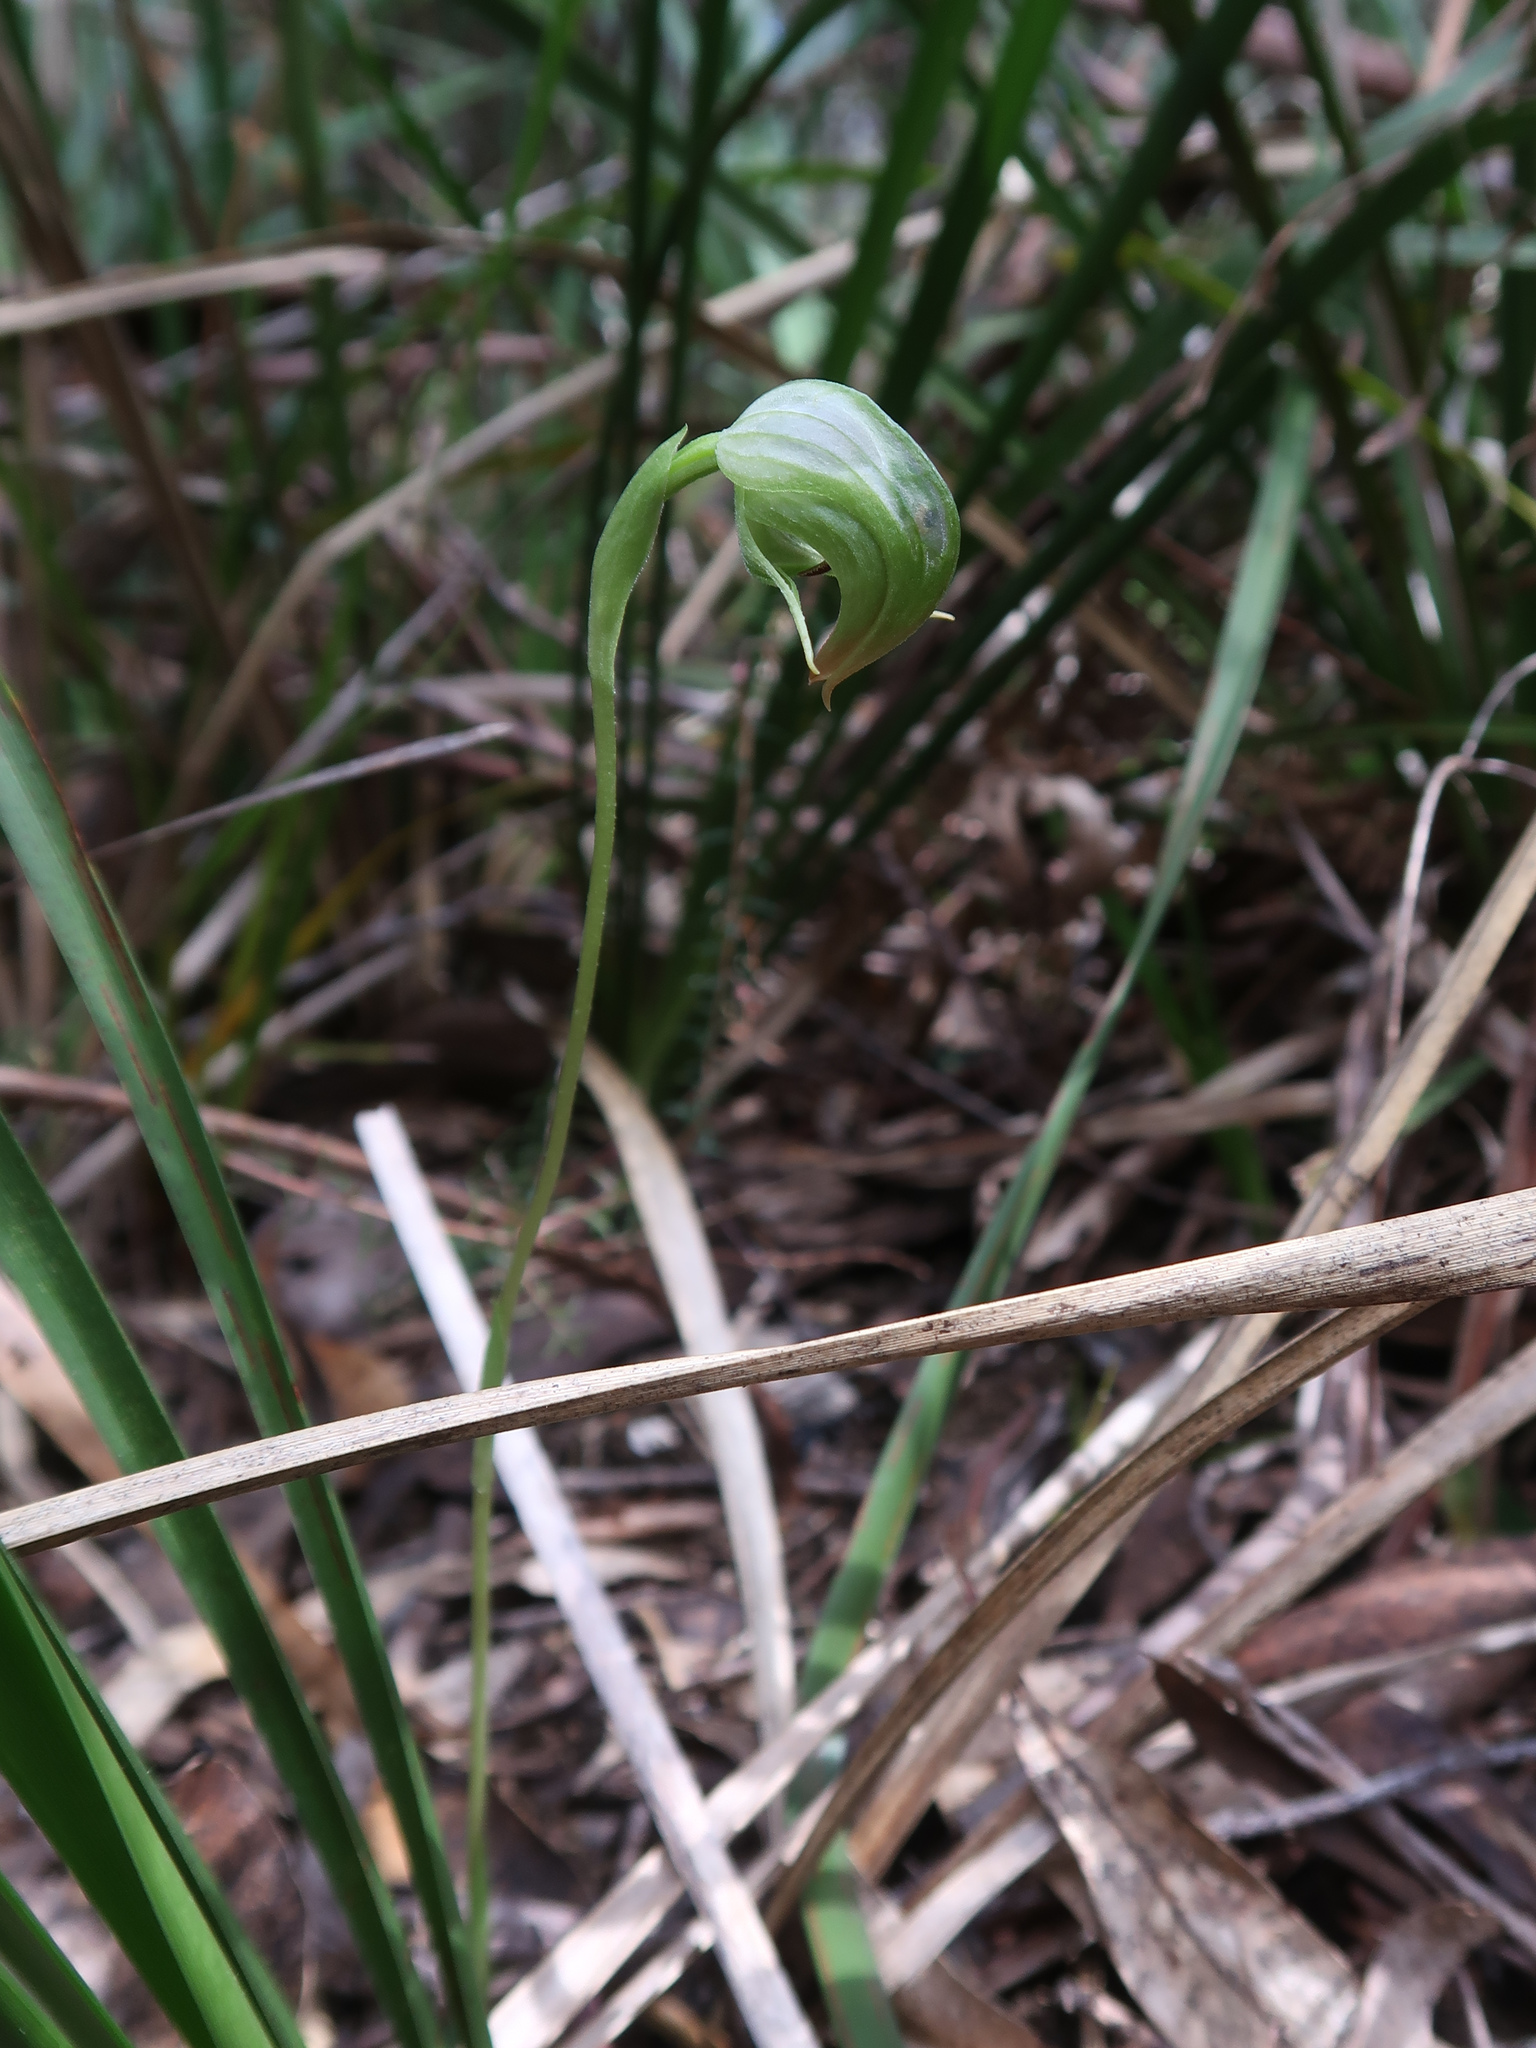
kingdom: Plantae
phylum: Tracheophyta
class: Liliopsida
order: Asparagales
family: Orchidaceae
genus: Pterostylis
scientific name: Pterostylis nutans
